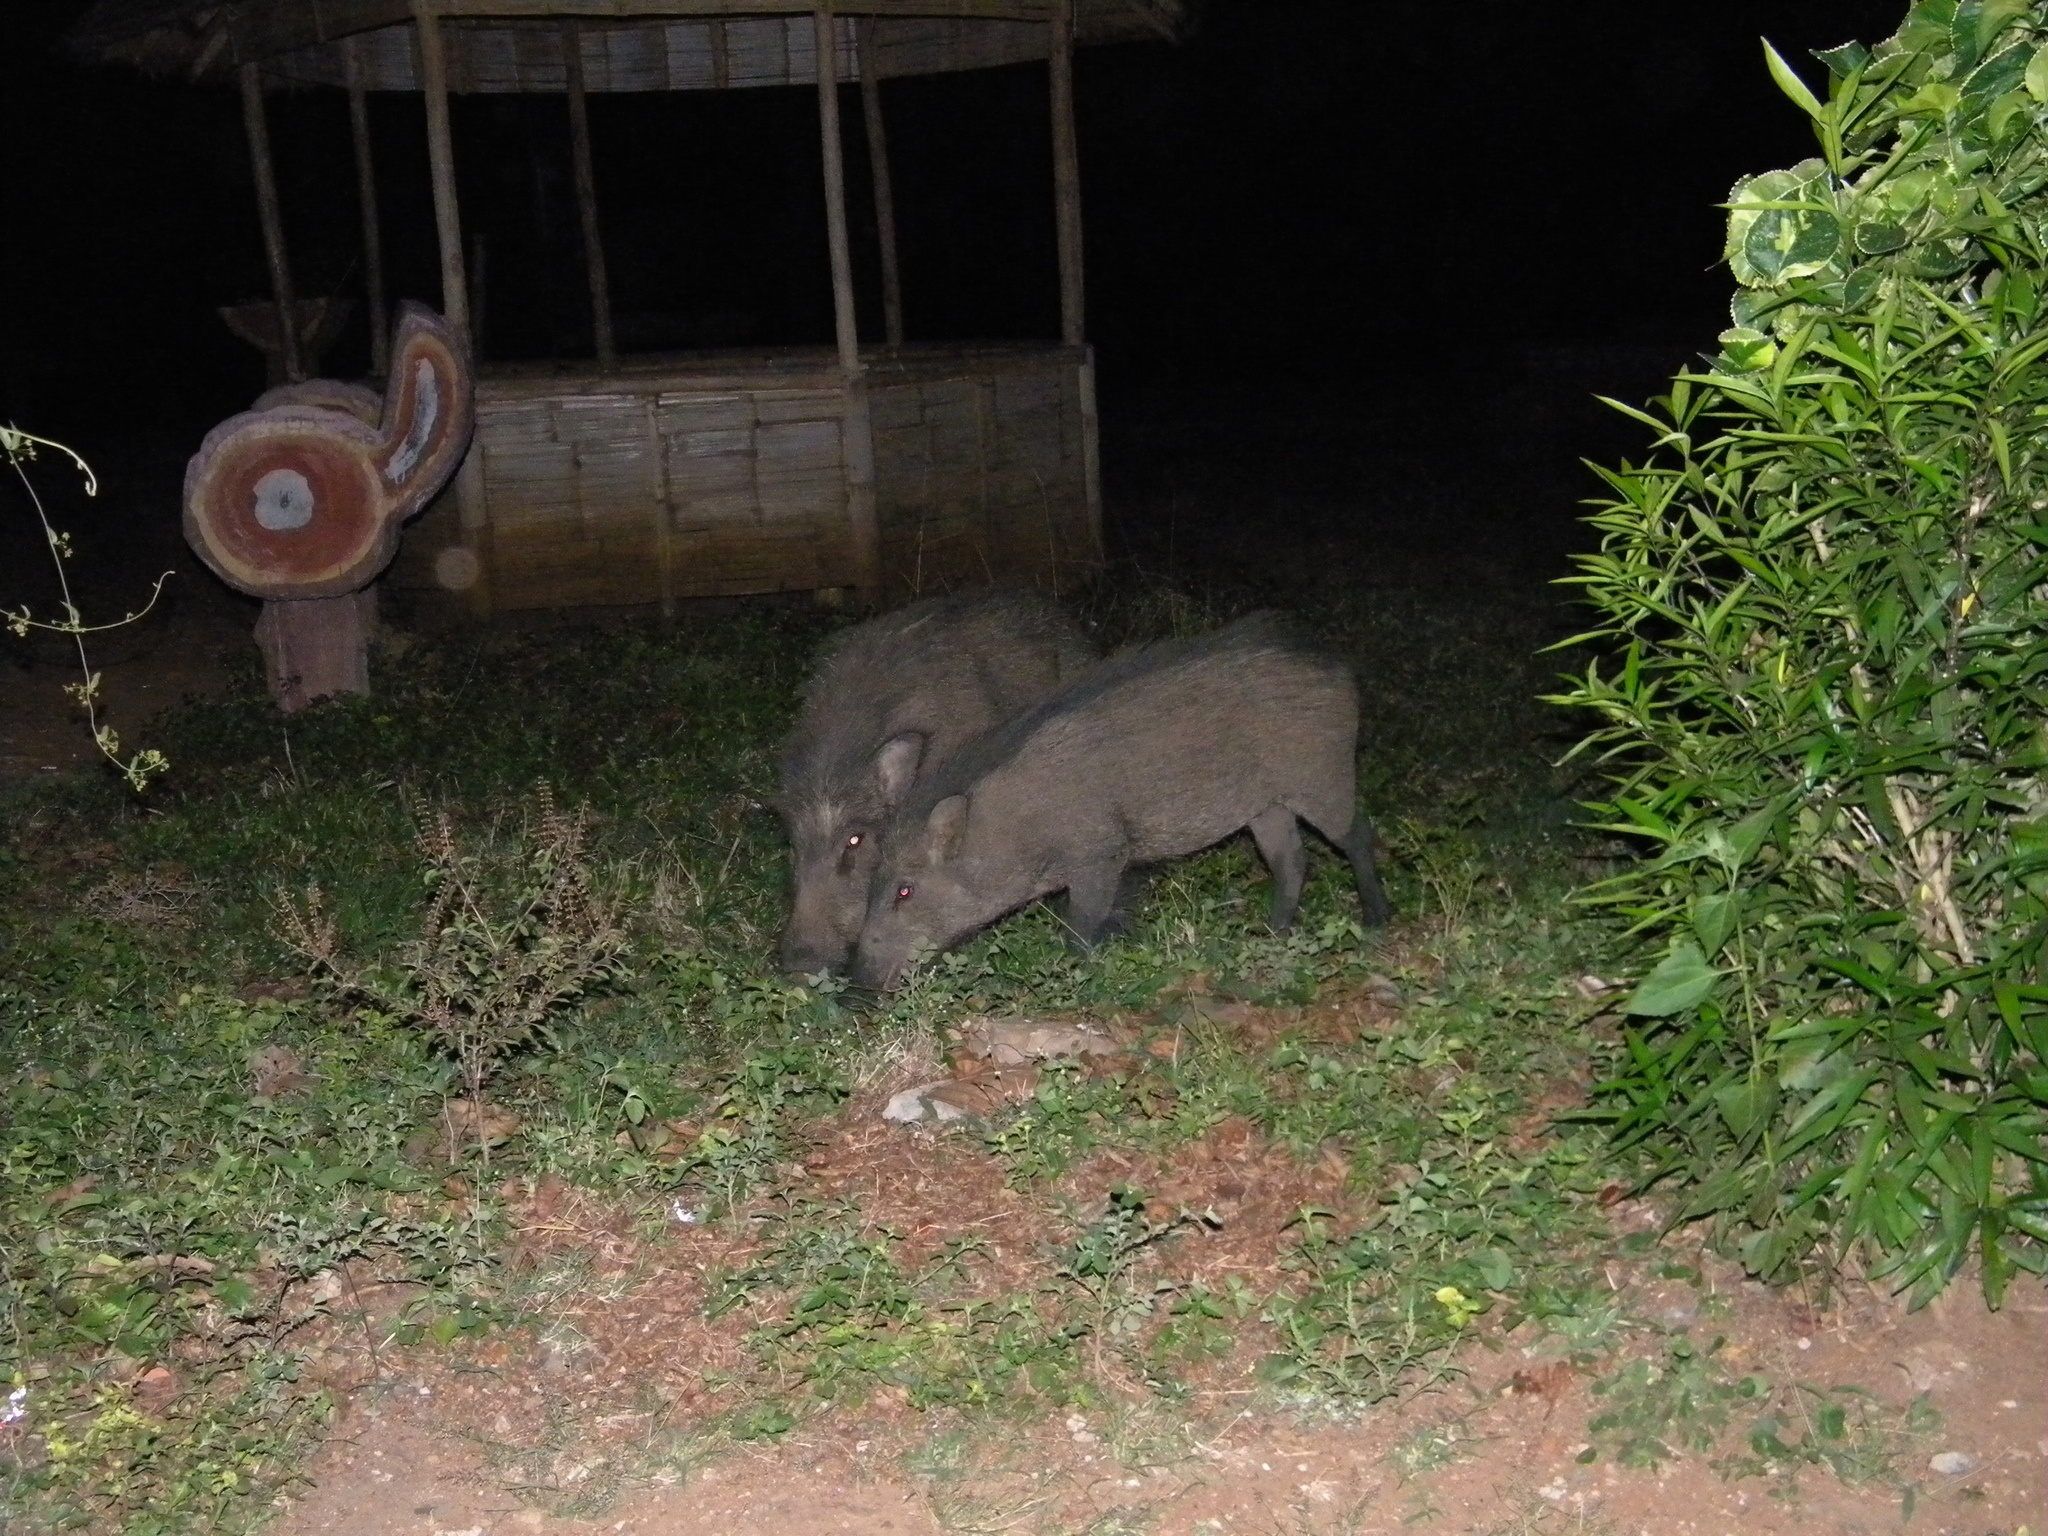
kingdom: Animalia
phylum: Chordata
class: Mammalia
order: Artiodactyla
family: Suidae
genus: Sus
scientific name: Sus scrofa
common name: Wild boar
